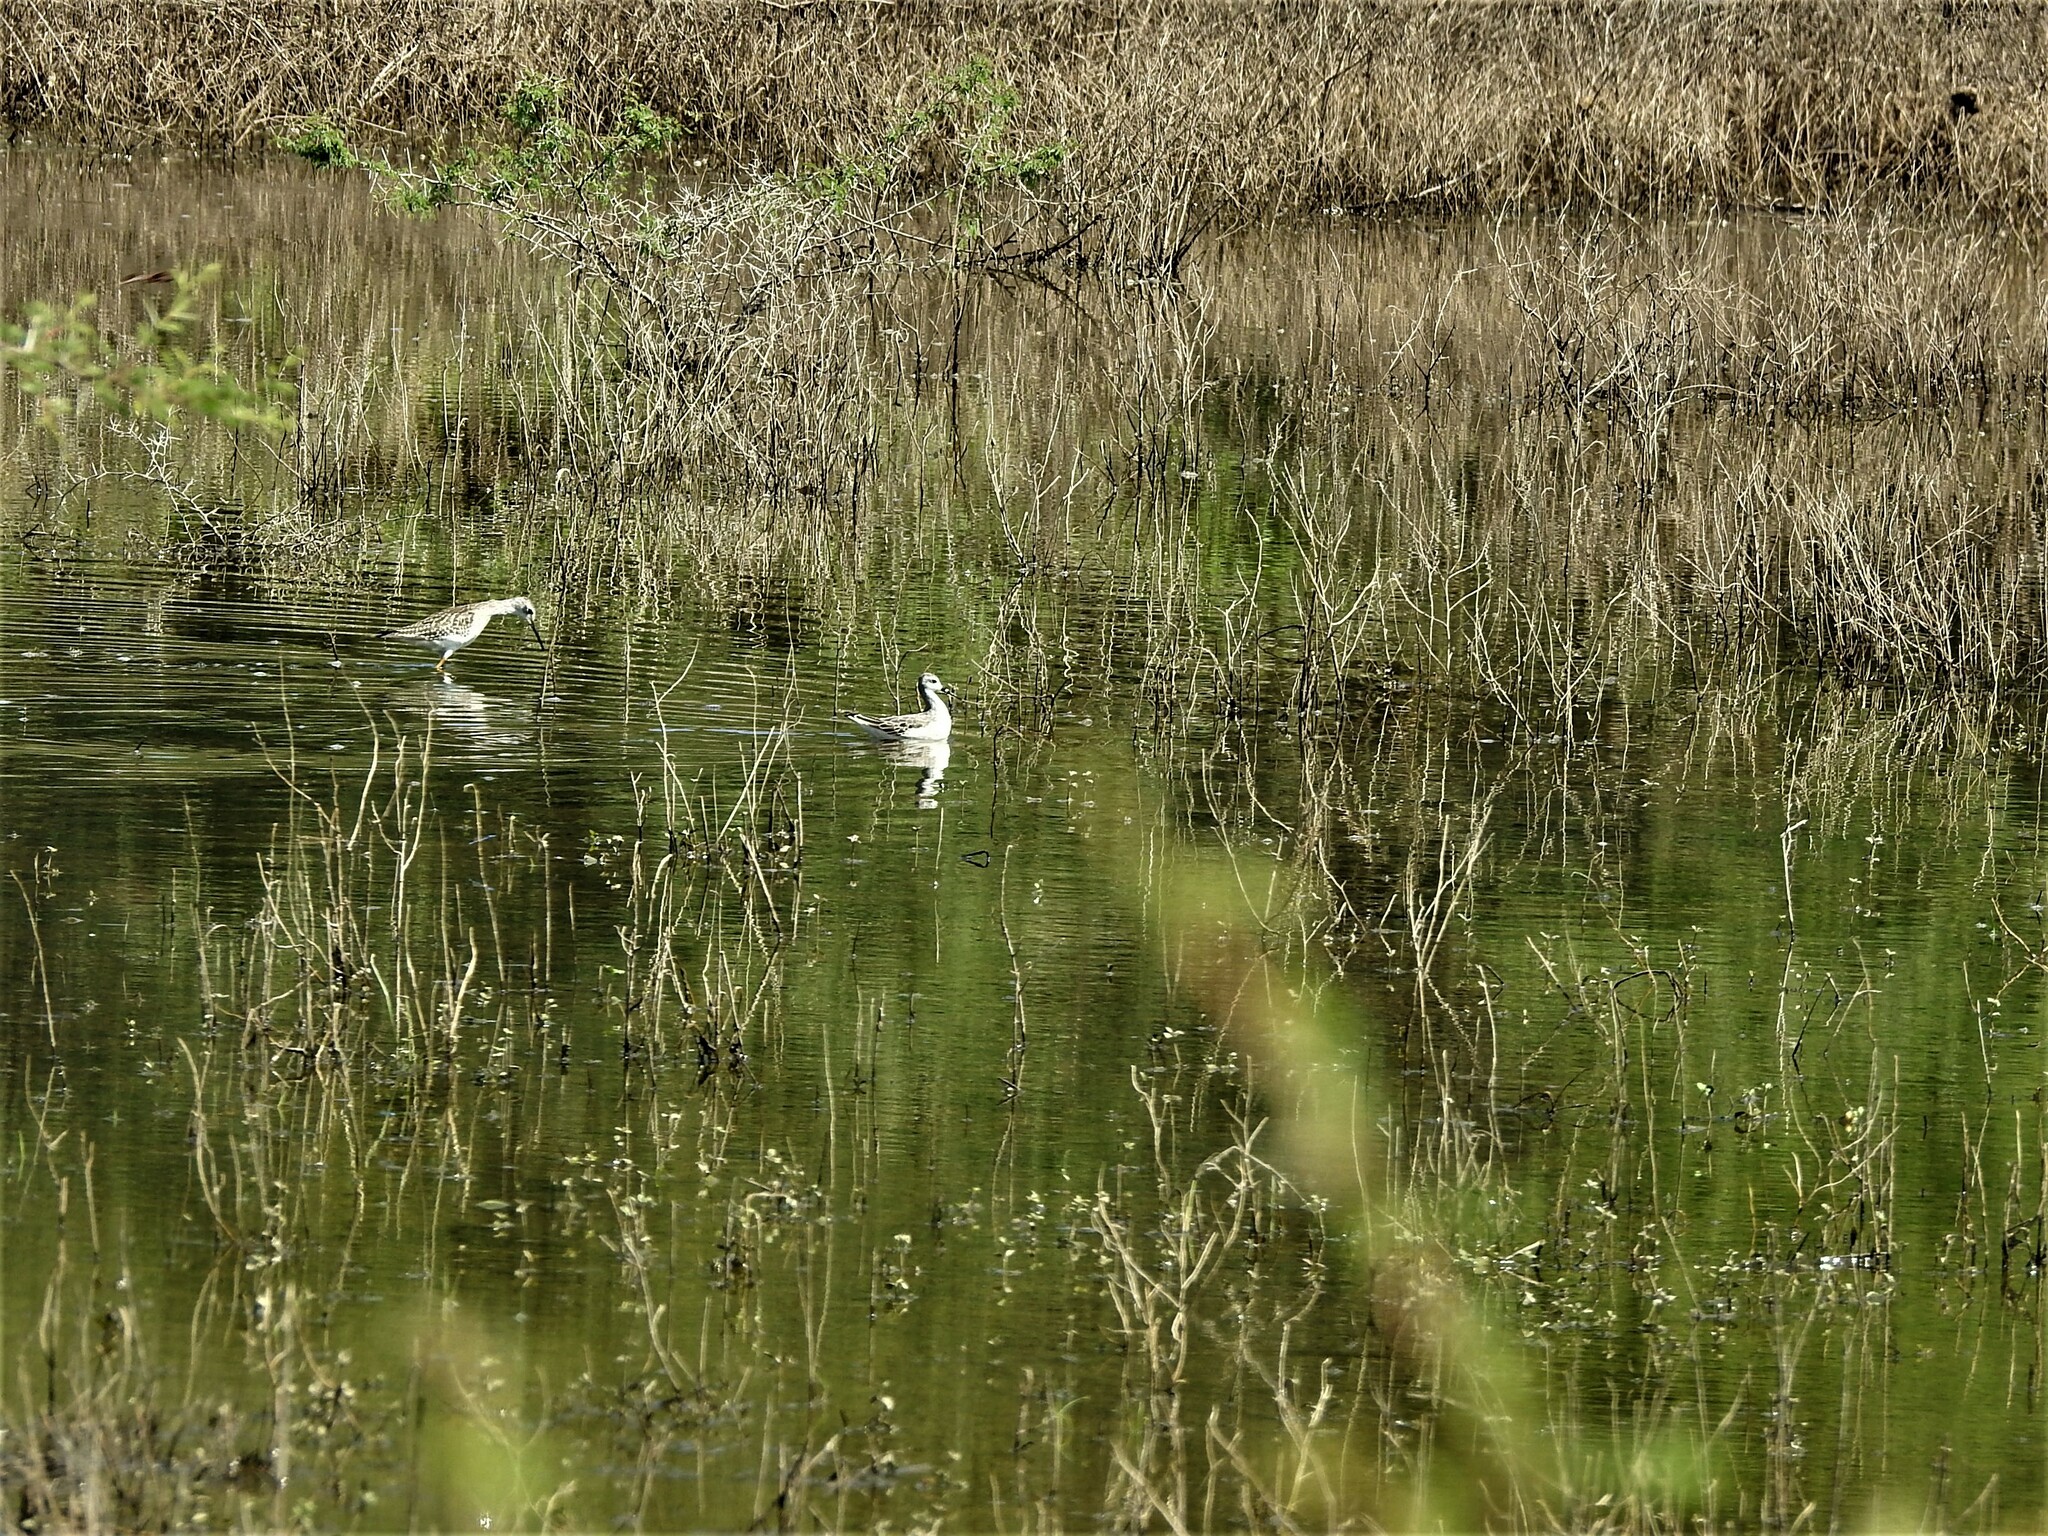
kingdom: Animalia
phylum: Chordata
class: Aves
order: Charadriiformes
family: Scolopacidae
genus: Phalaropus
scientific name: Phalaropus tricolor
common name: Wilson's phalarope
